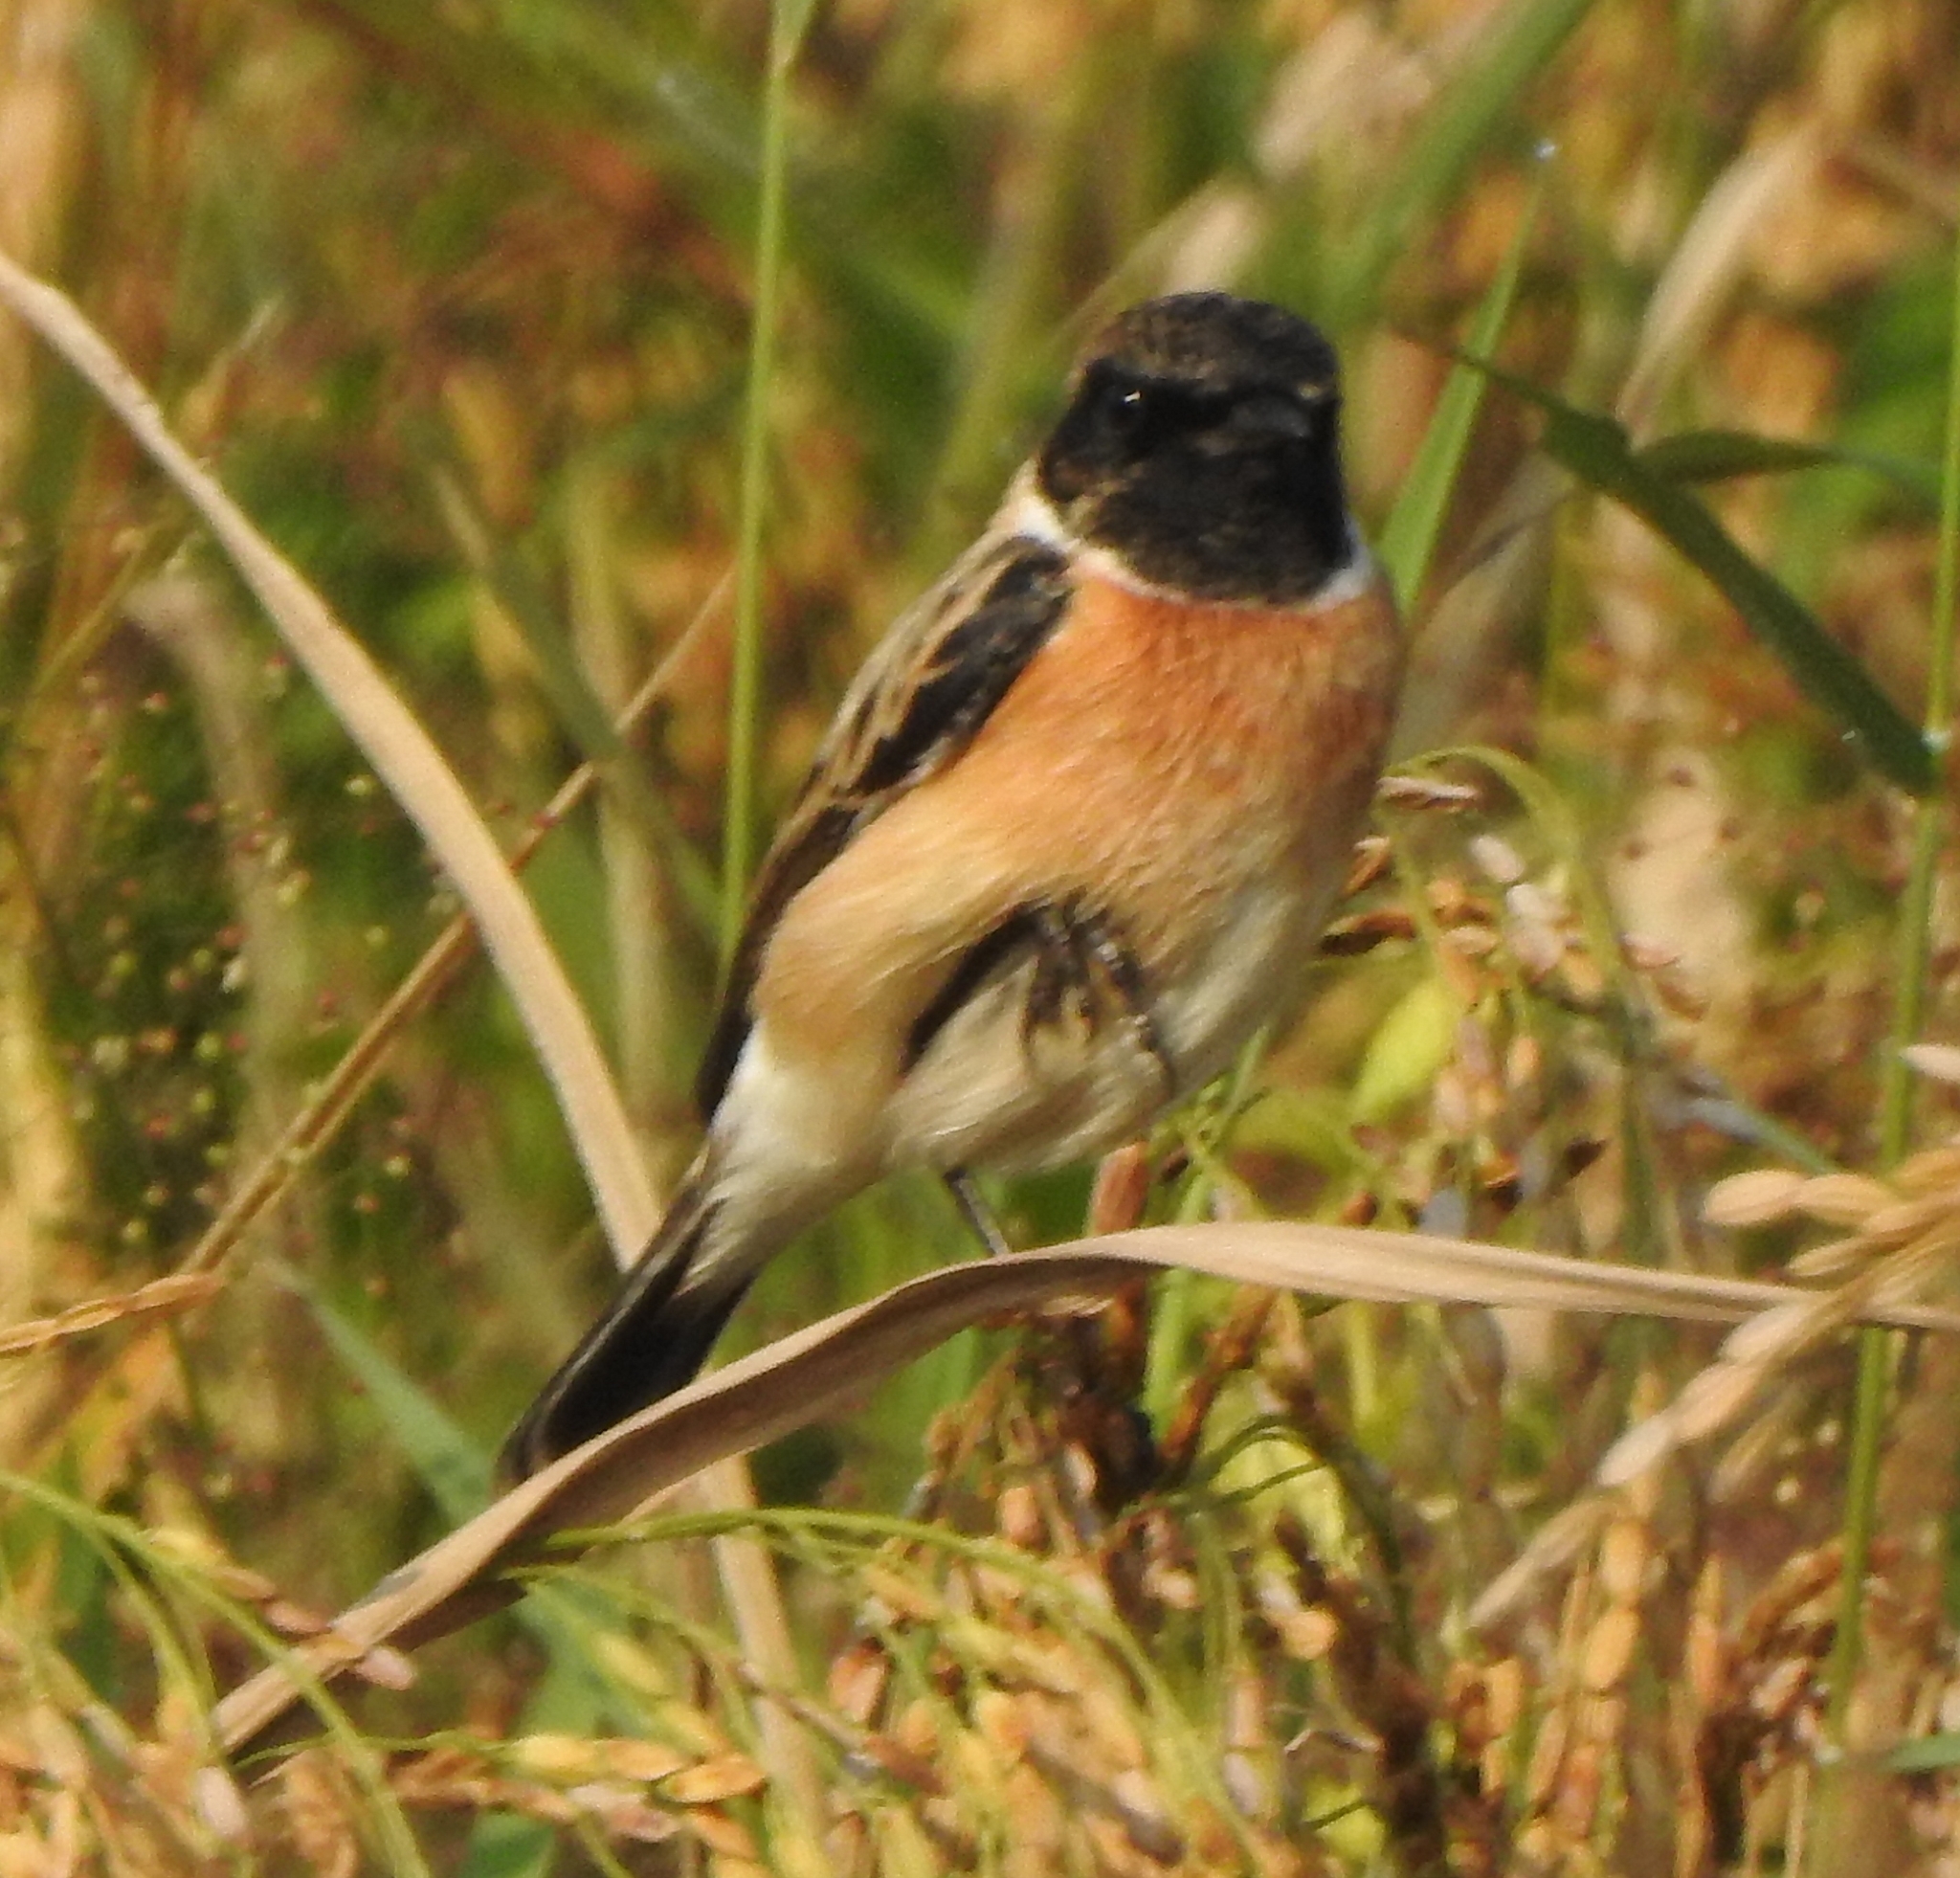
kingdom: Animalia
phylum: Chordata
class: Aves
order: Passeriformes
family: Muscicapidae
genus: Saxicola
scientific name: Saxicola maurus
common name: Siberian stonechat
